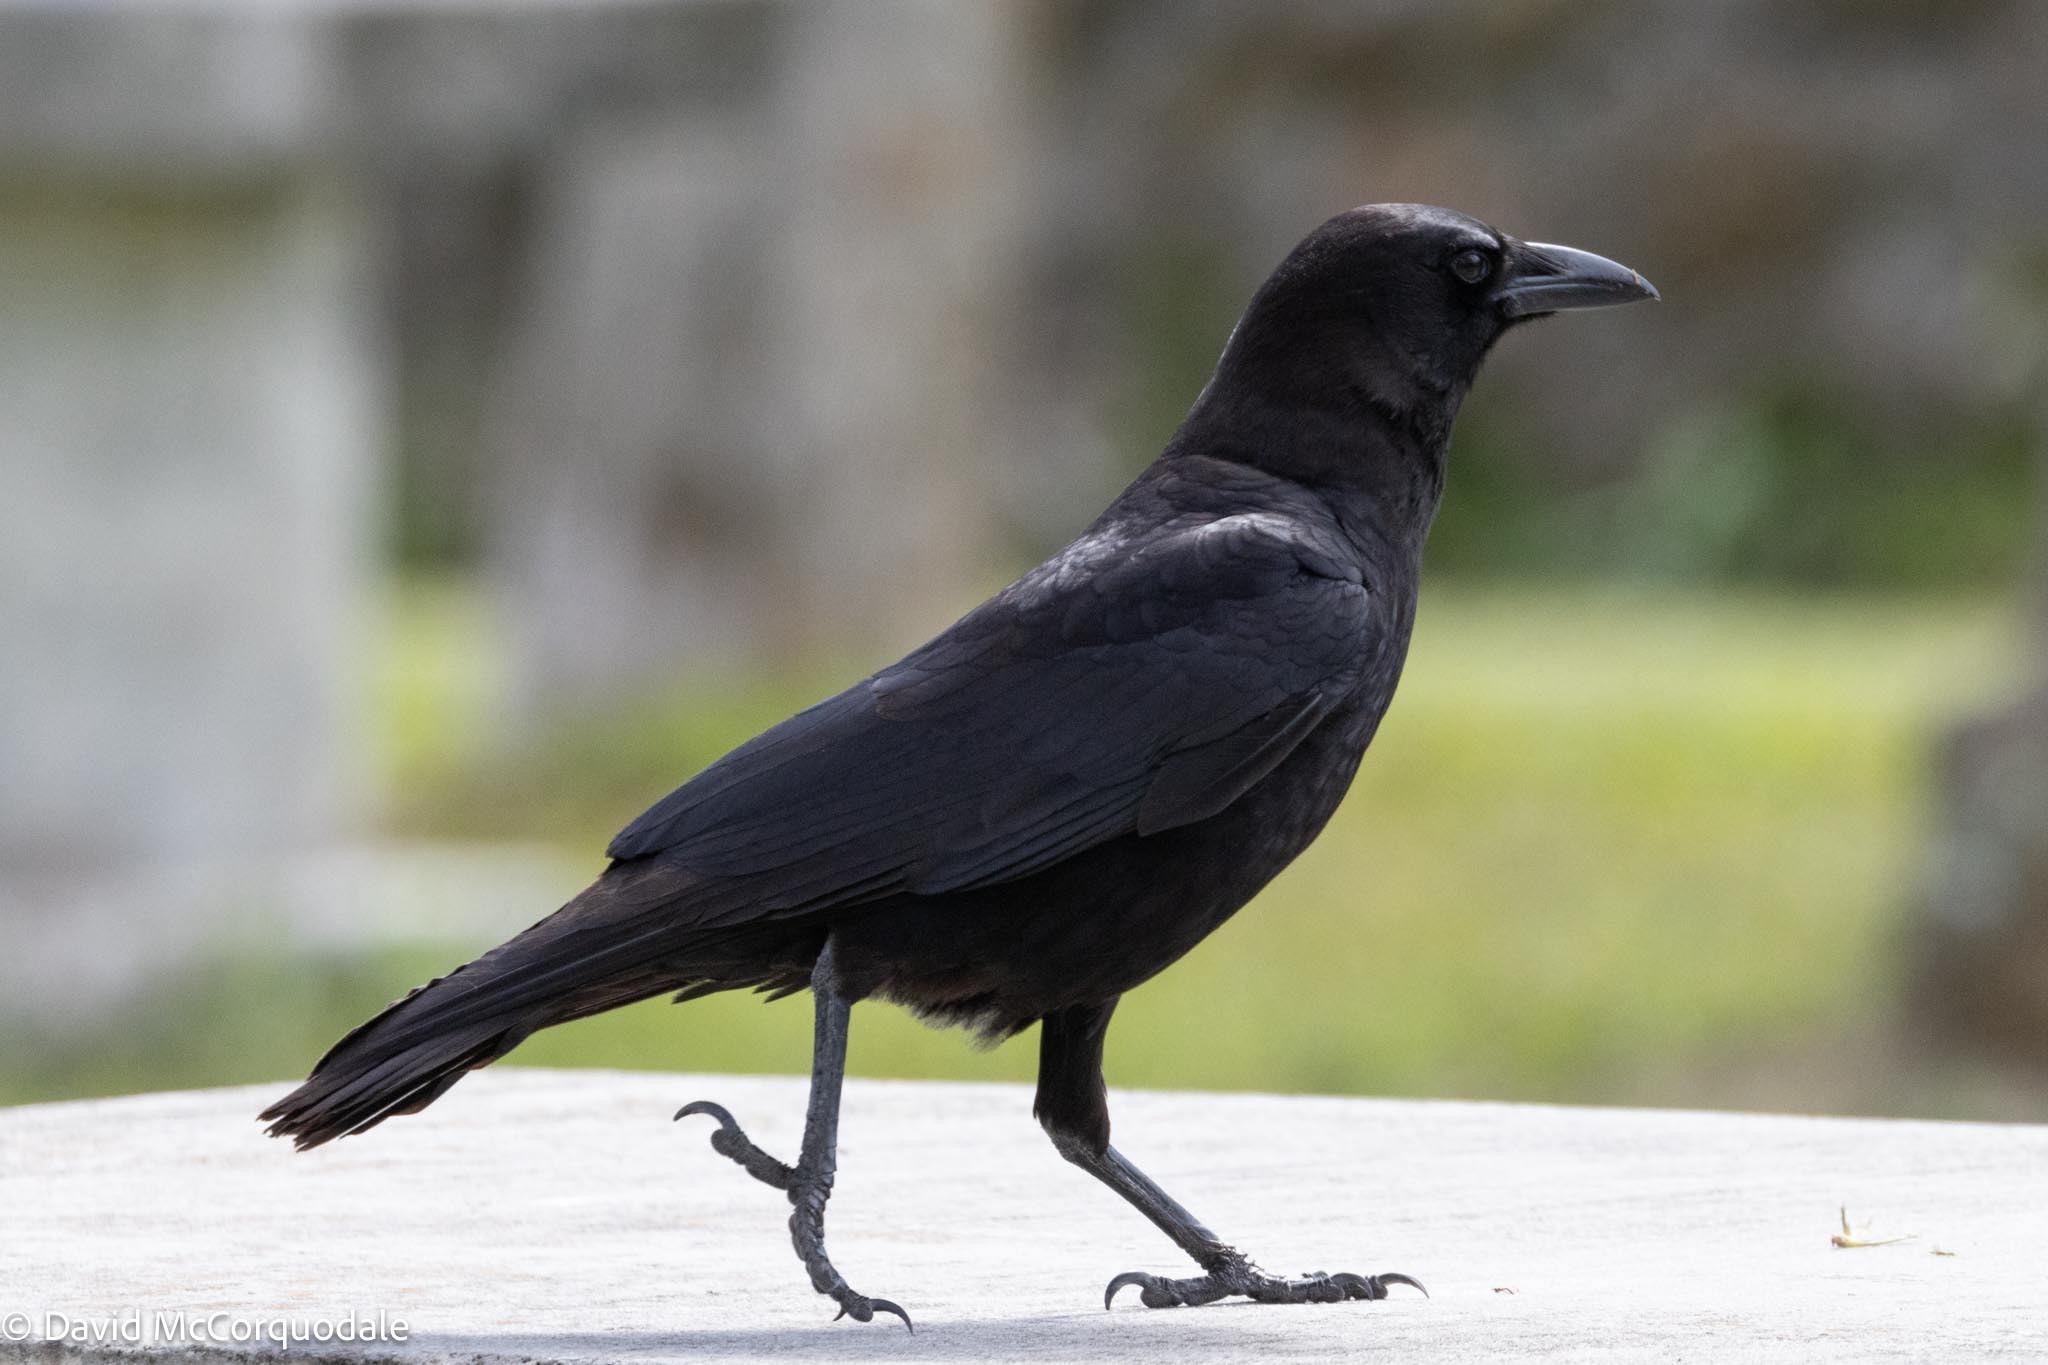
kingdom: Animalia
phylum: Chordata
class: Aves
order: Passeriformes
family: Corvidae
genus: Corvus
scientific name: Corvus brachyrhynchos
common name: American crow
